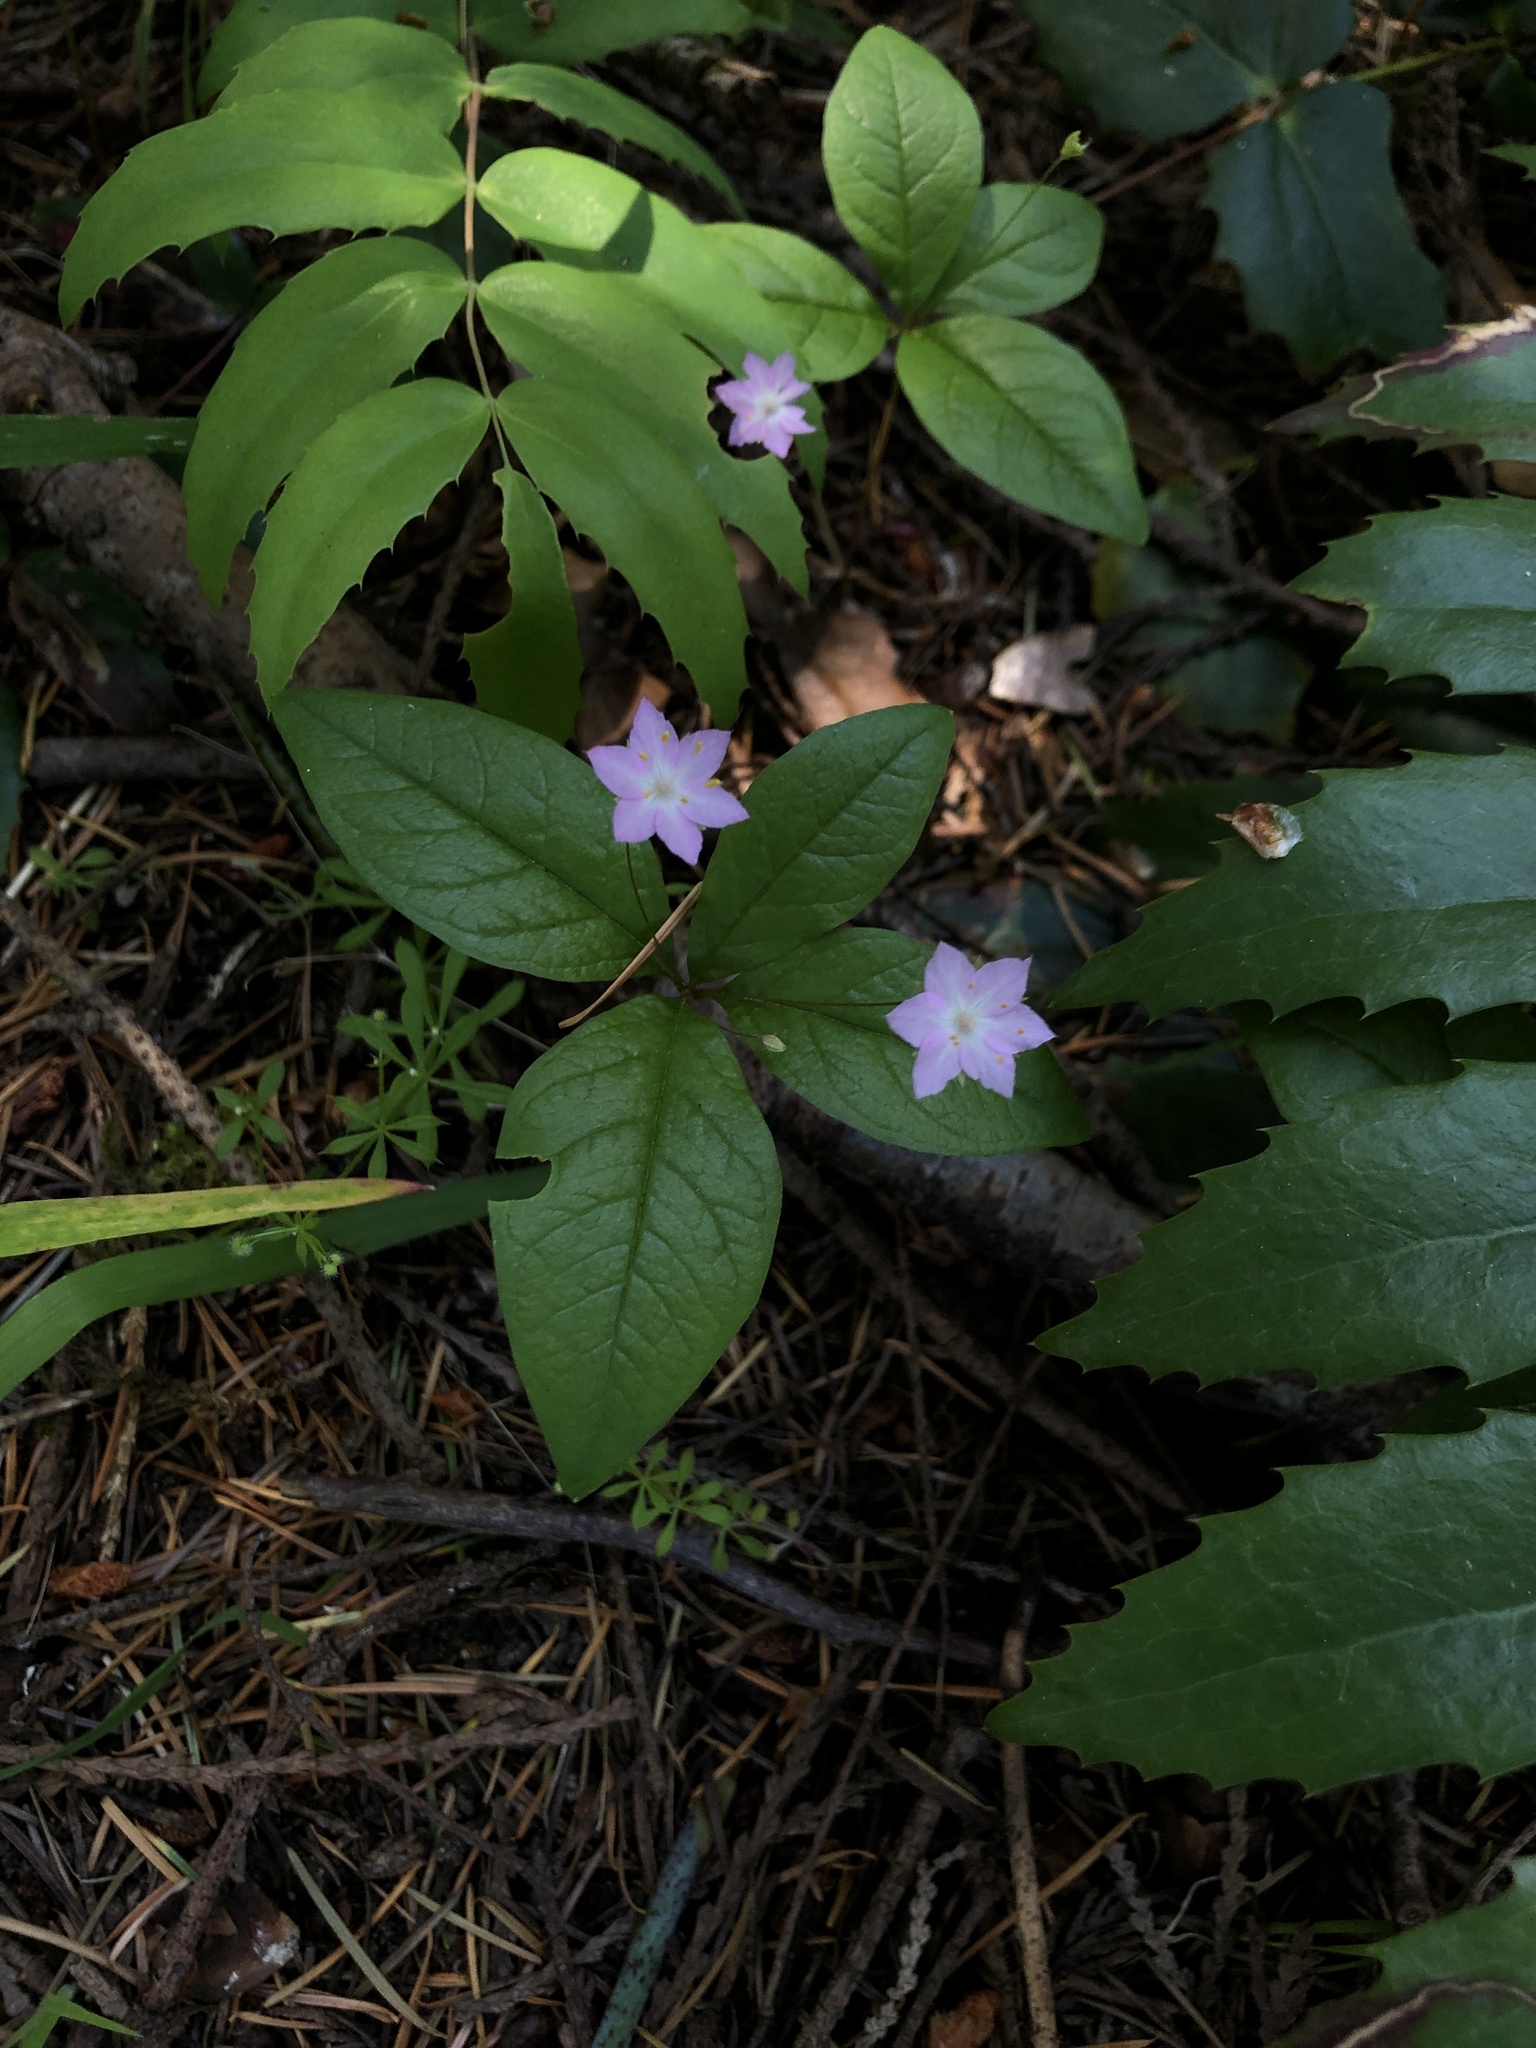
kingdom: Plantae
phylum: Tracheophyta
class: Magnoliopsida
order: Ericales
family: Primulaceae
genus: Lysimachia
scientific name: Lysimachia latifolia
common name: Pacific starflower
